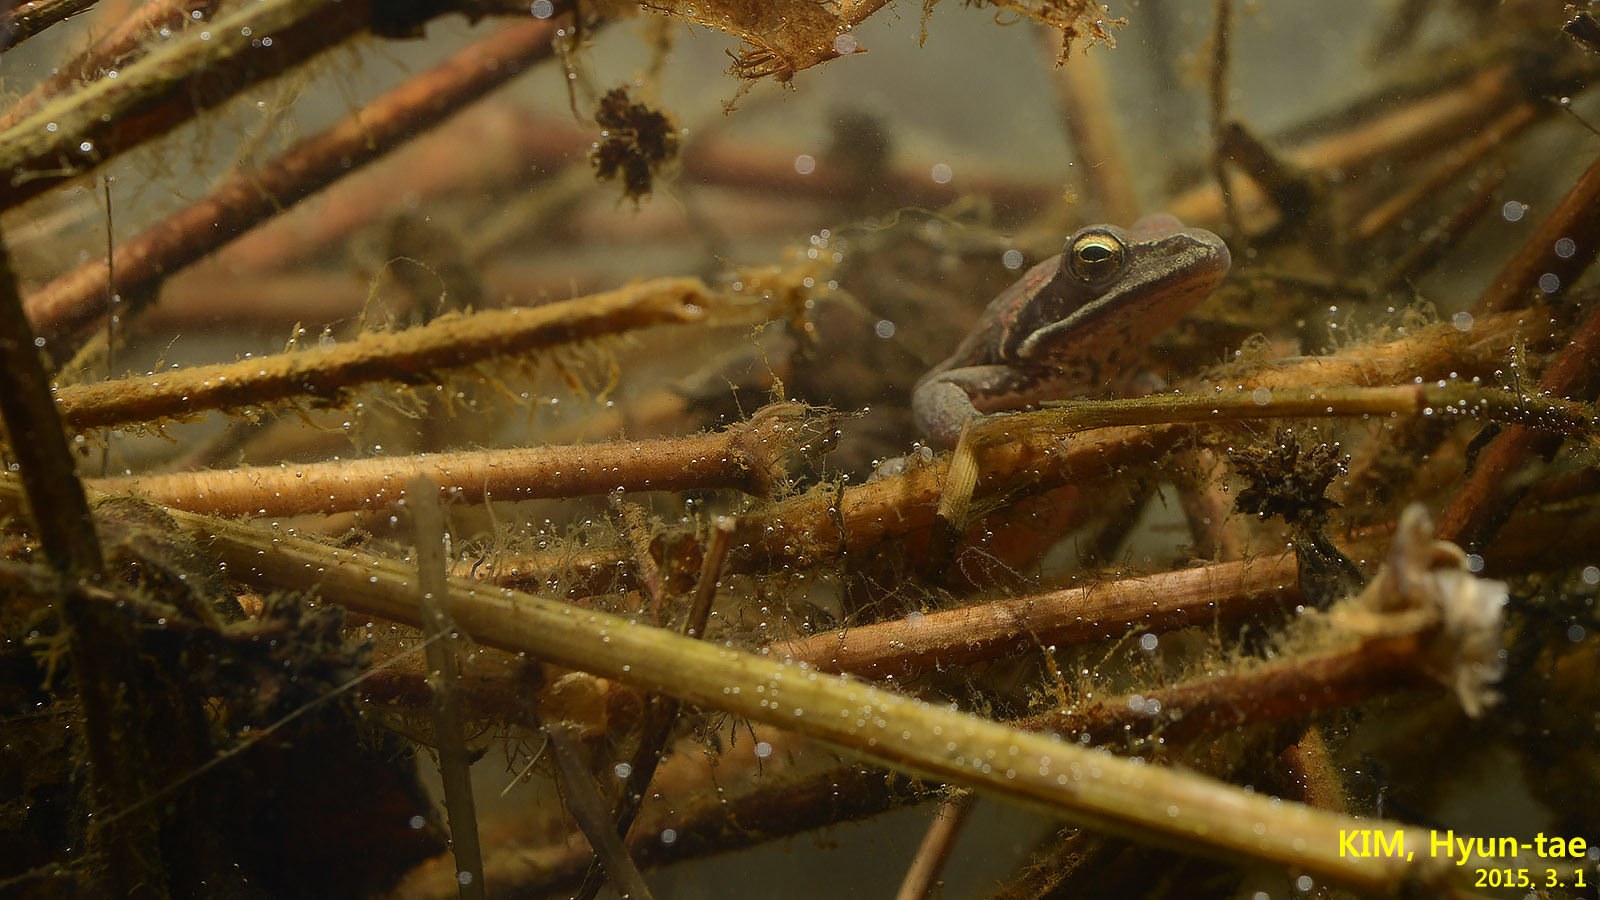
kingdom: Animalia
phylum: Chordata
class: Amphibia
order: Anura
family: Ranidae
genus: Rana
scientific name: Rana coreana
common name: Korean brown frog
